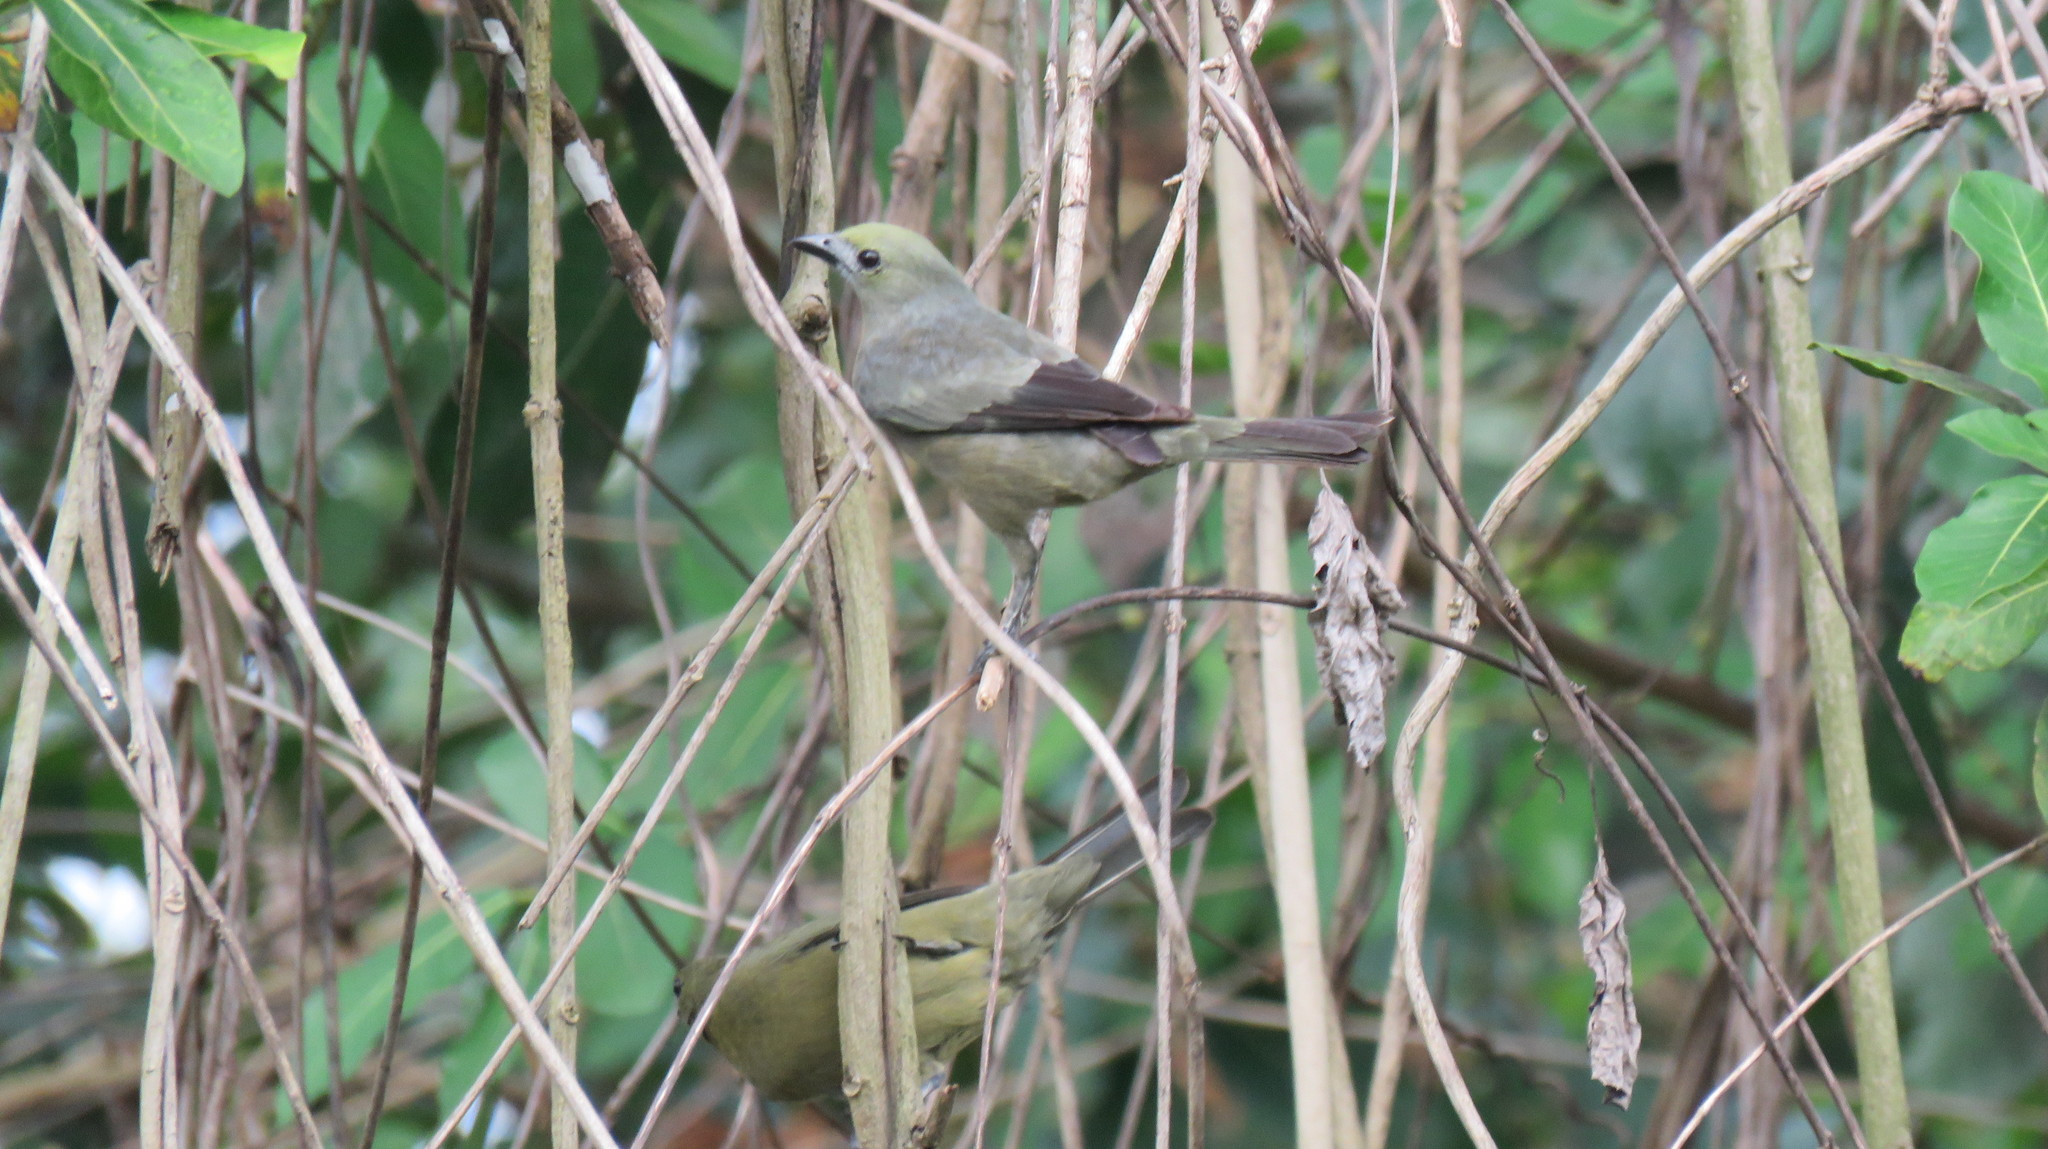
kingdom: Animalia
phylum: Chordata
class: Aves
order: Passeriformes
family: Thraupidae
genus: Thraupis
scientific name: Thraupis palmarum
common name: Palm tanager
